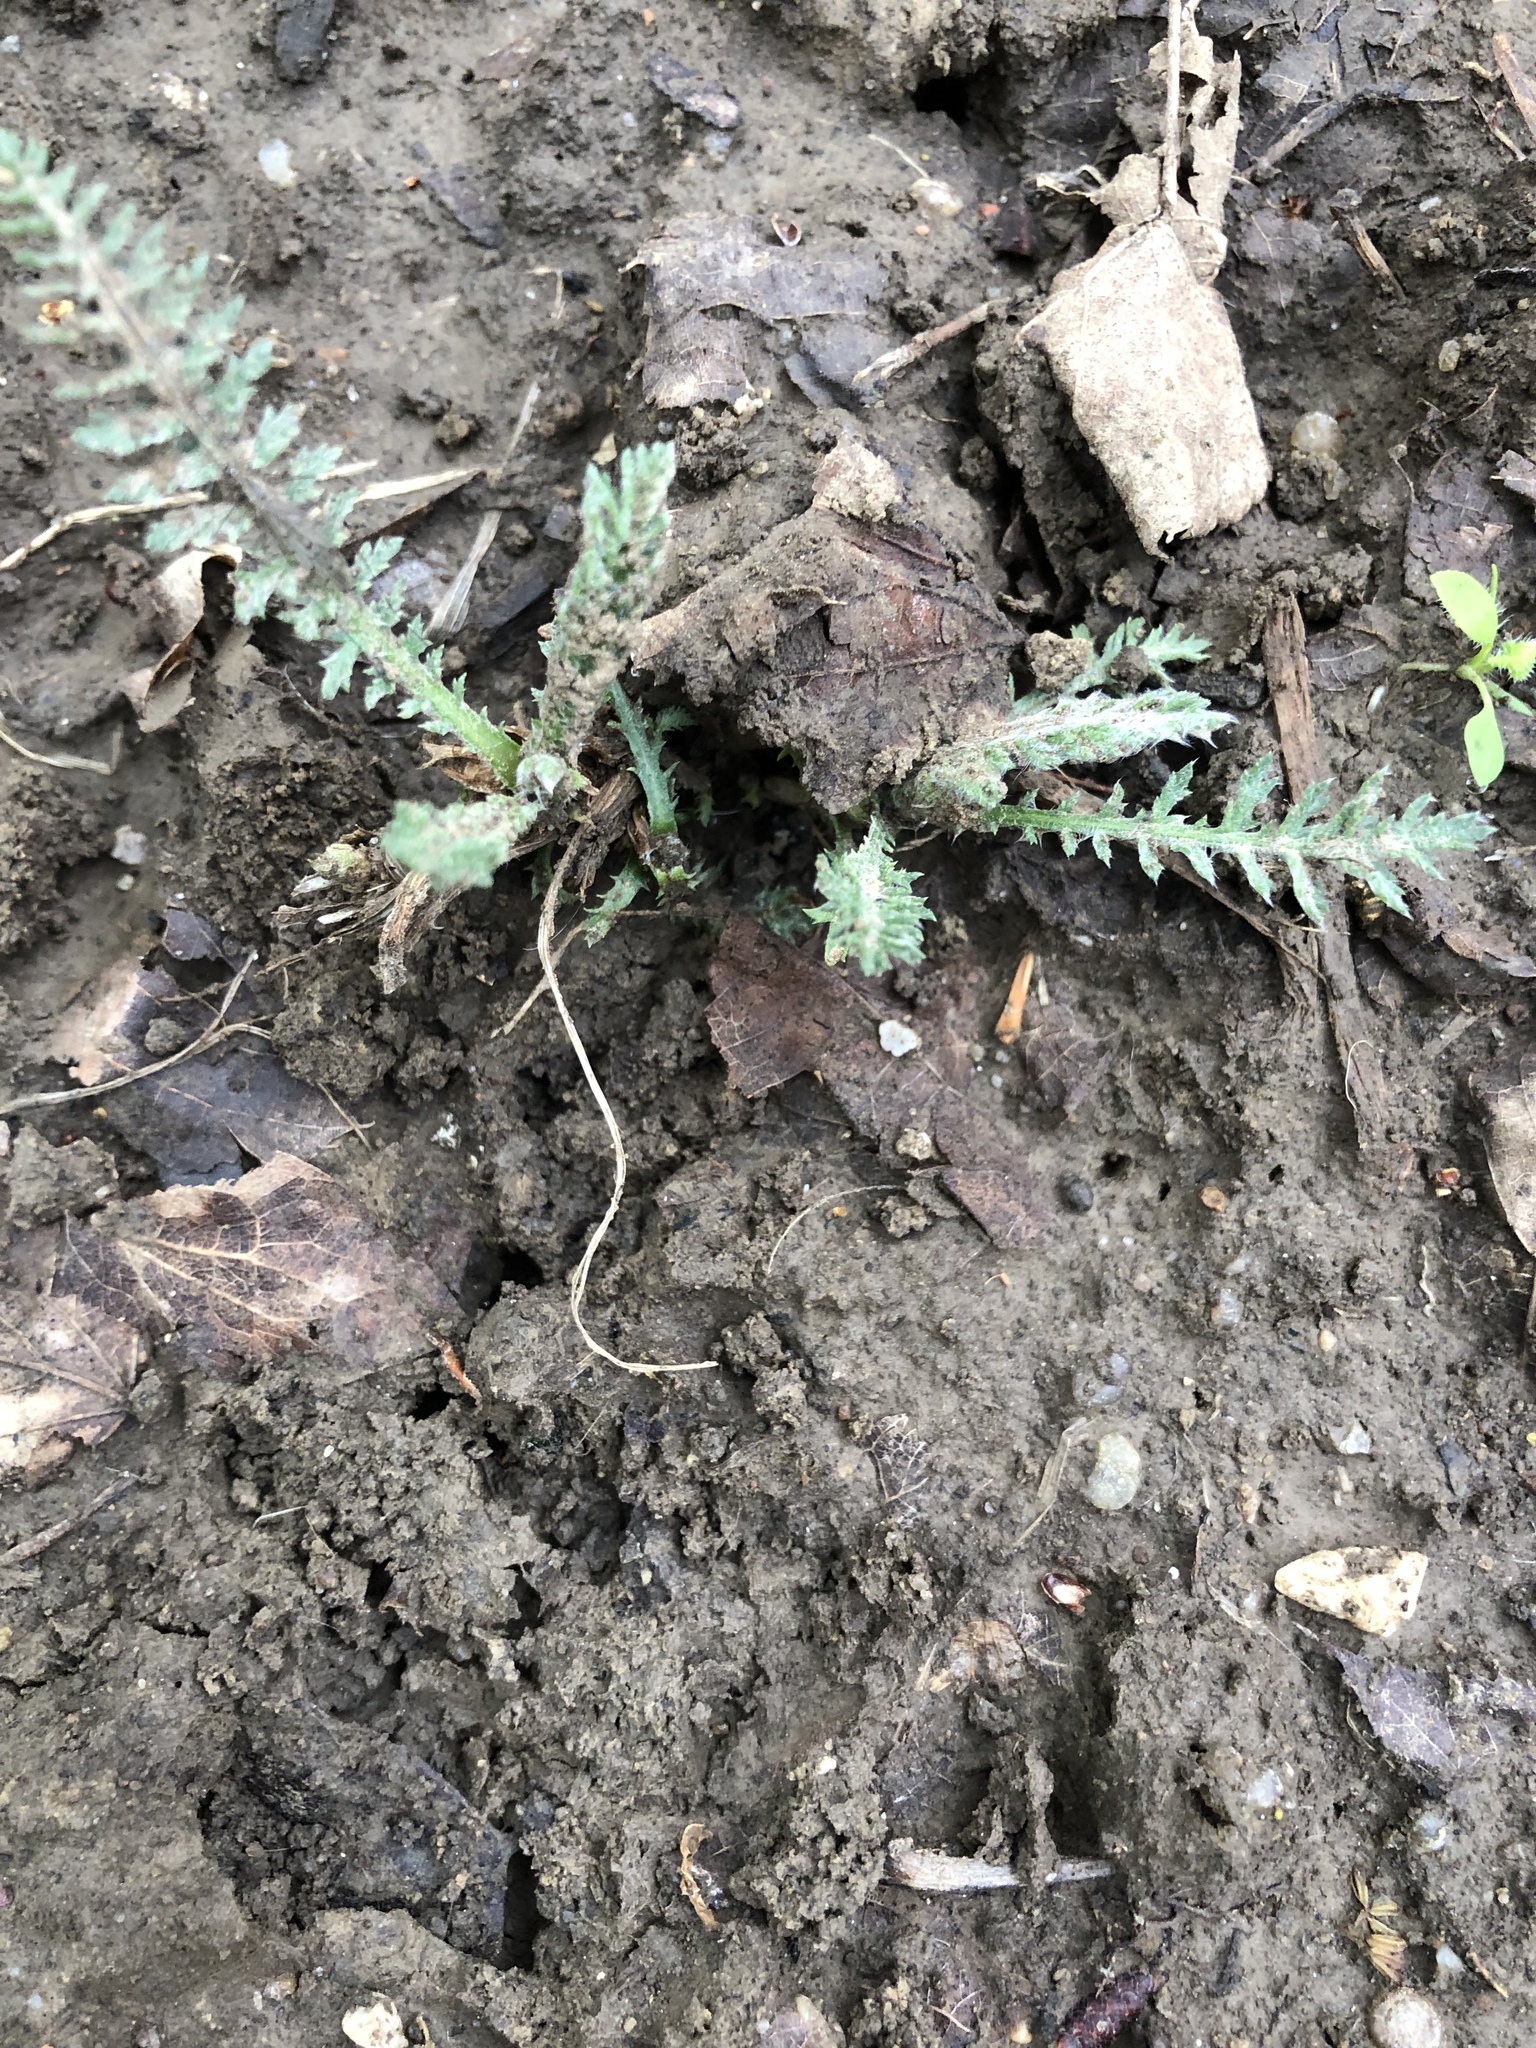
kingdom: Plantae
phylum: Tracheophyta
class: Magnoliopsida
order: Asterales
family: Asteraceae
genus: Achillea
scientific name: Achillea millefolium
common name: Yarrow
